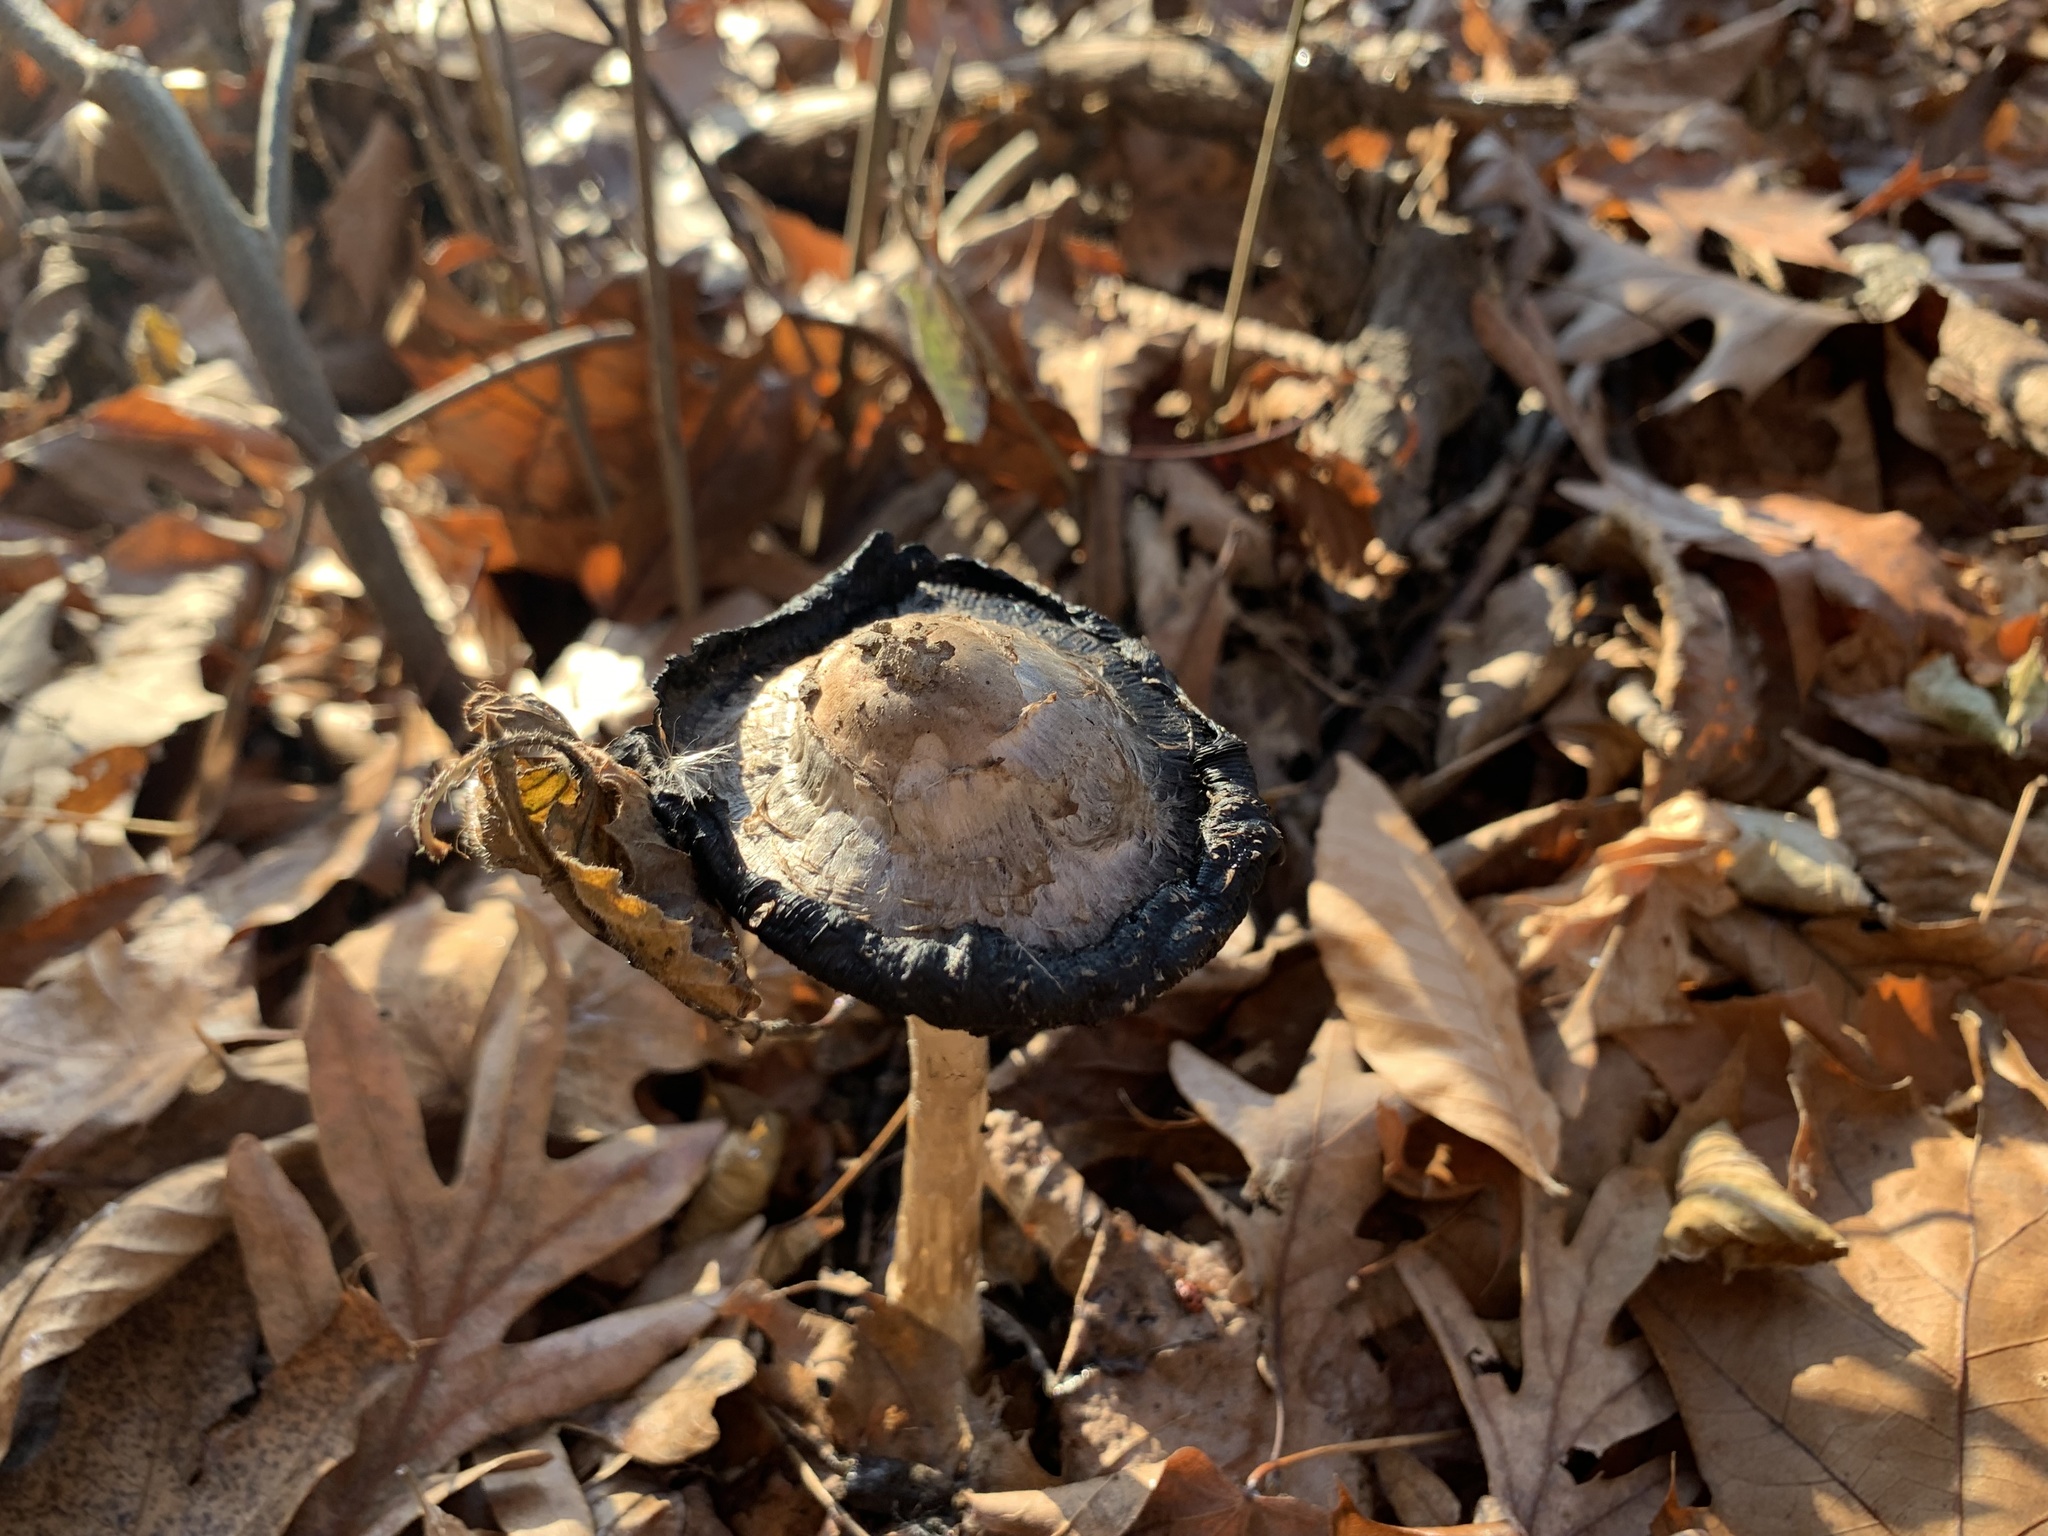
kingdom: Fungi
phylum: Basidiomycota
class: Agaricomycetes
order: Agaricales
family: Agaricaceae
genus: Coprinus
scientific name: Coprinus comatus
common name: Lawyer's wig
